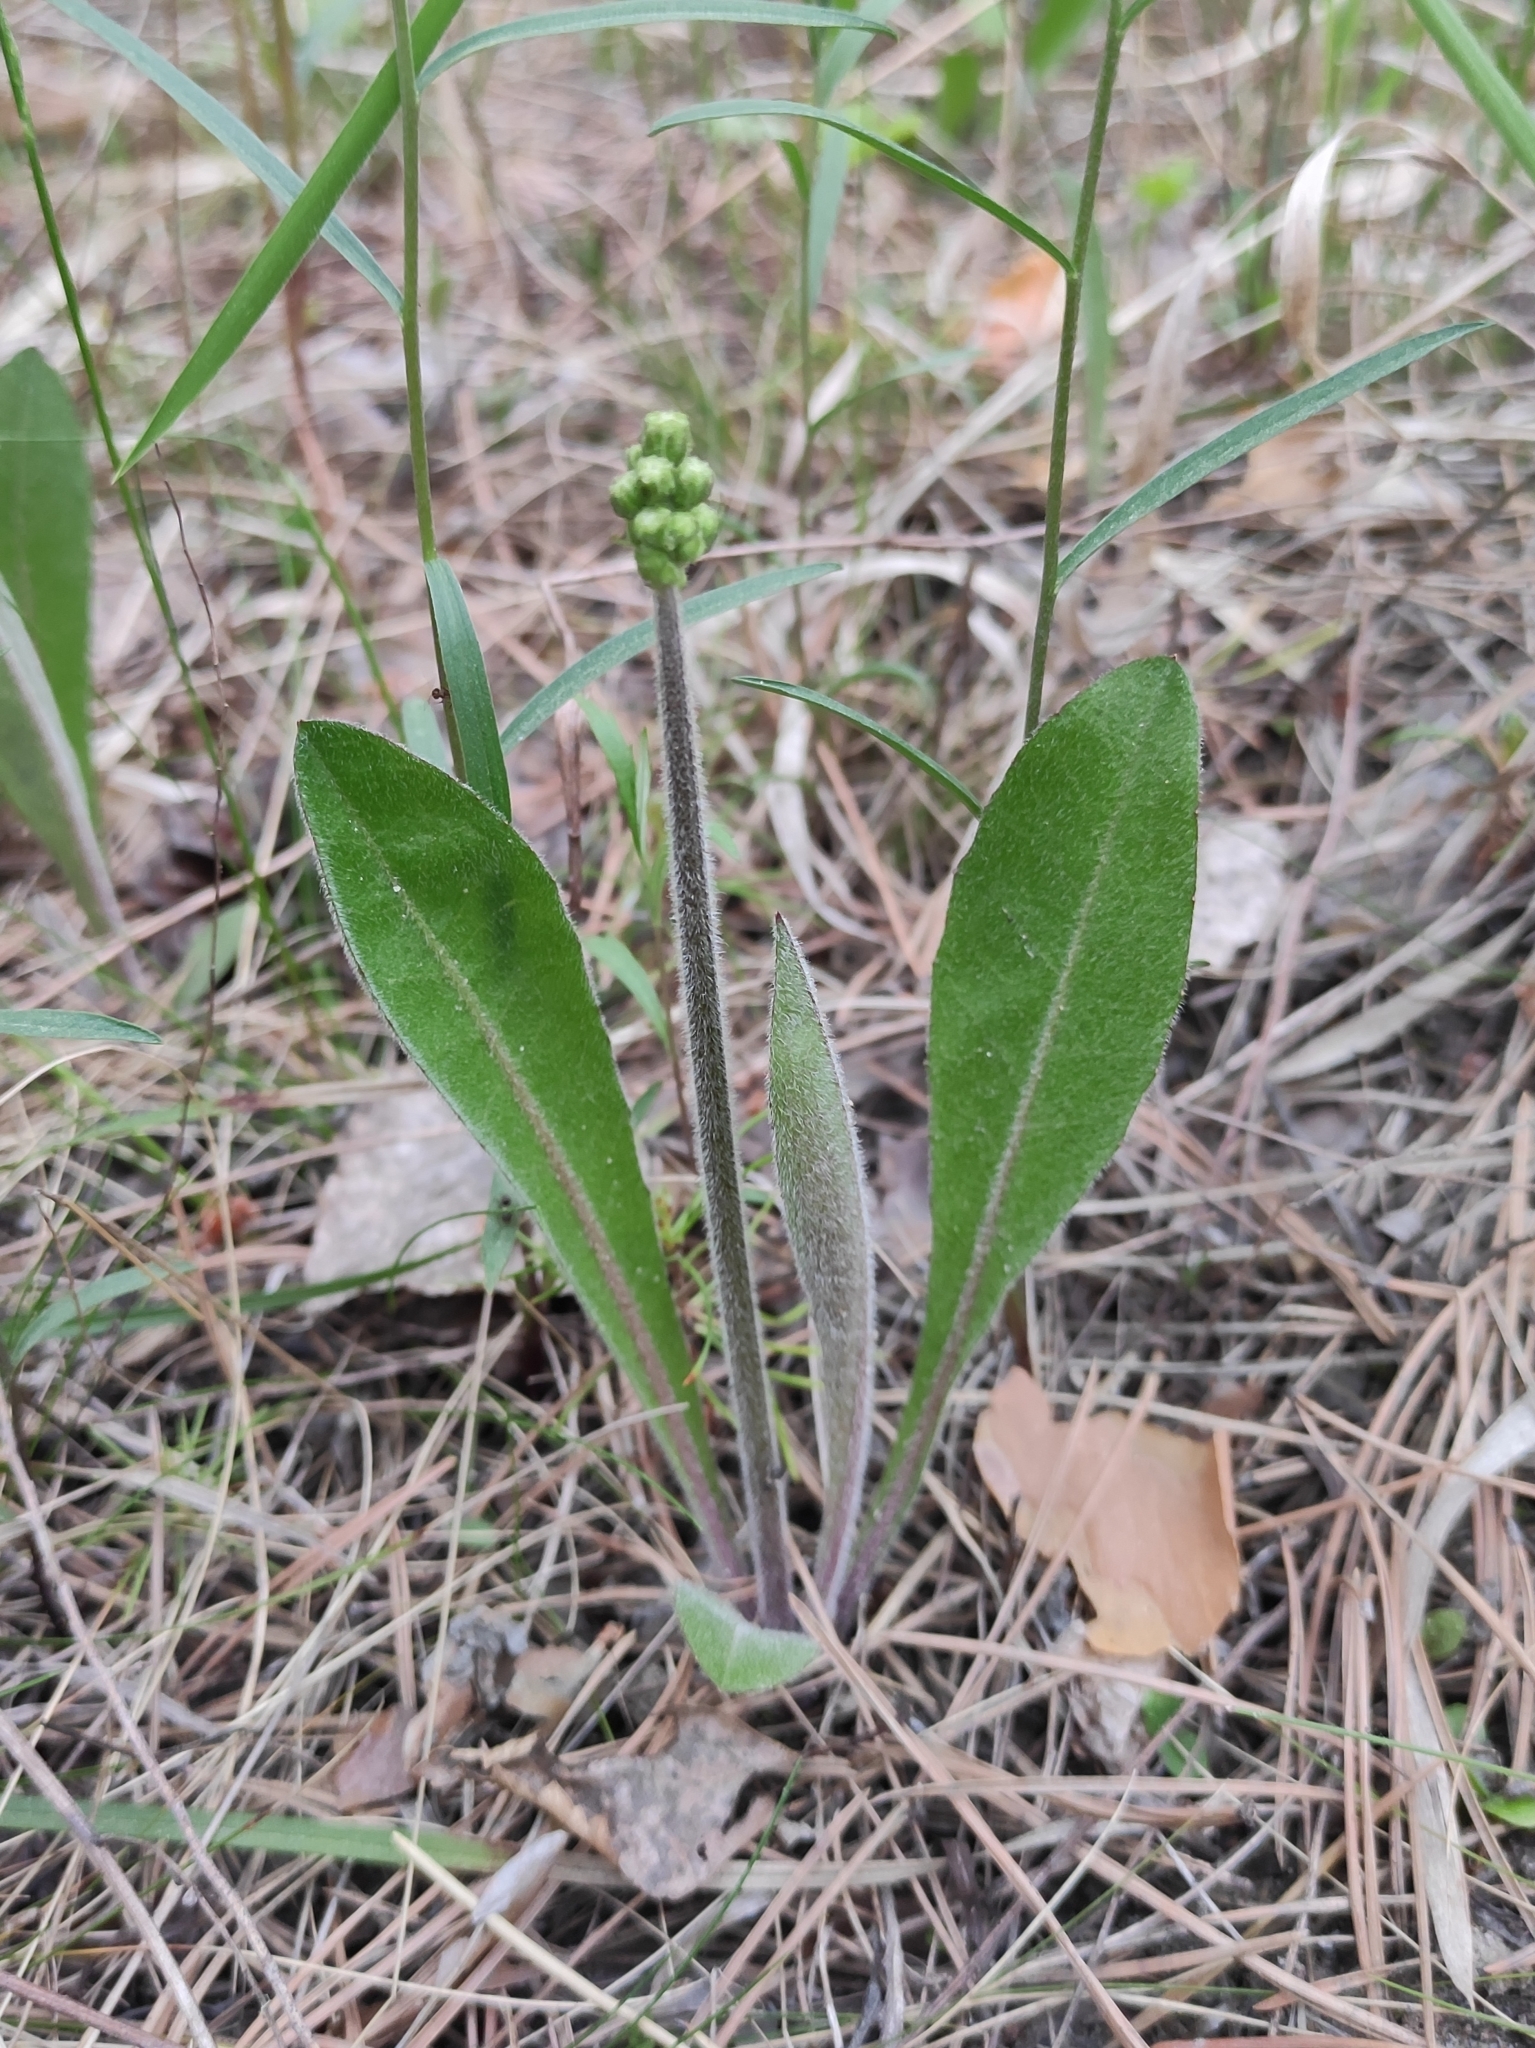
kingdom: Plantae
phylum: Tracheophyta
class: Magnoliopsida
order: Asterales
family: Asteraceae
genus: Crepis
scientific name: Crepis praemorsa
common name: Leafless hawk's-beard
